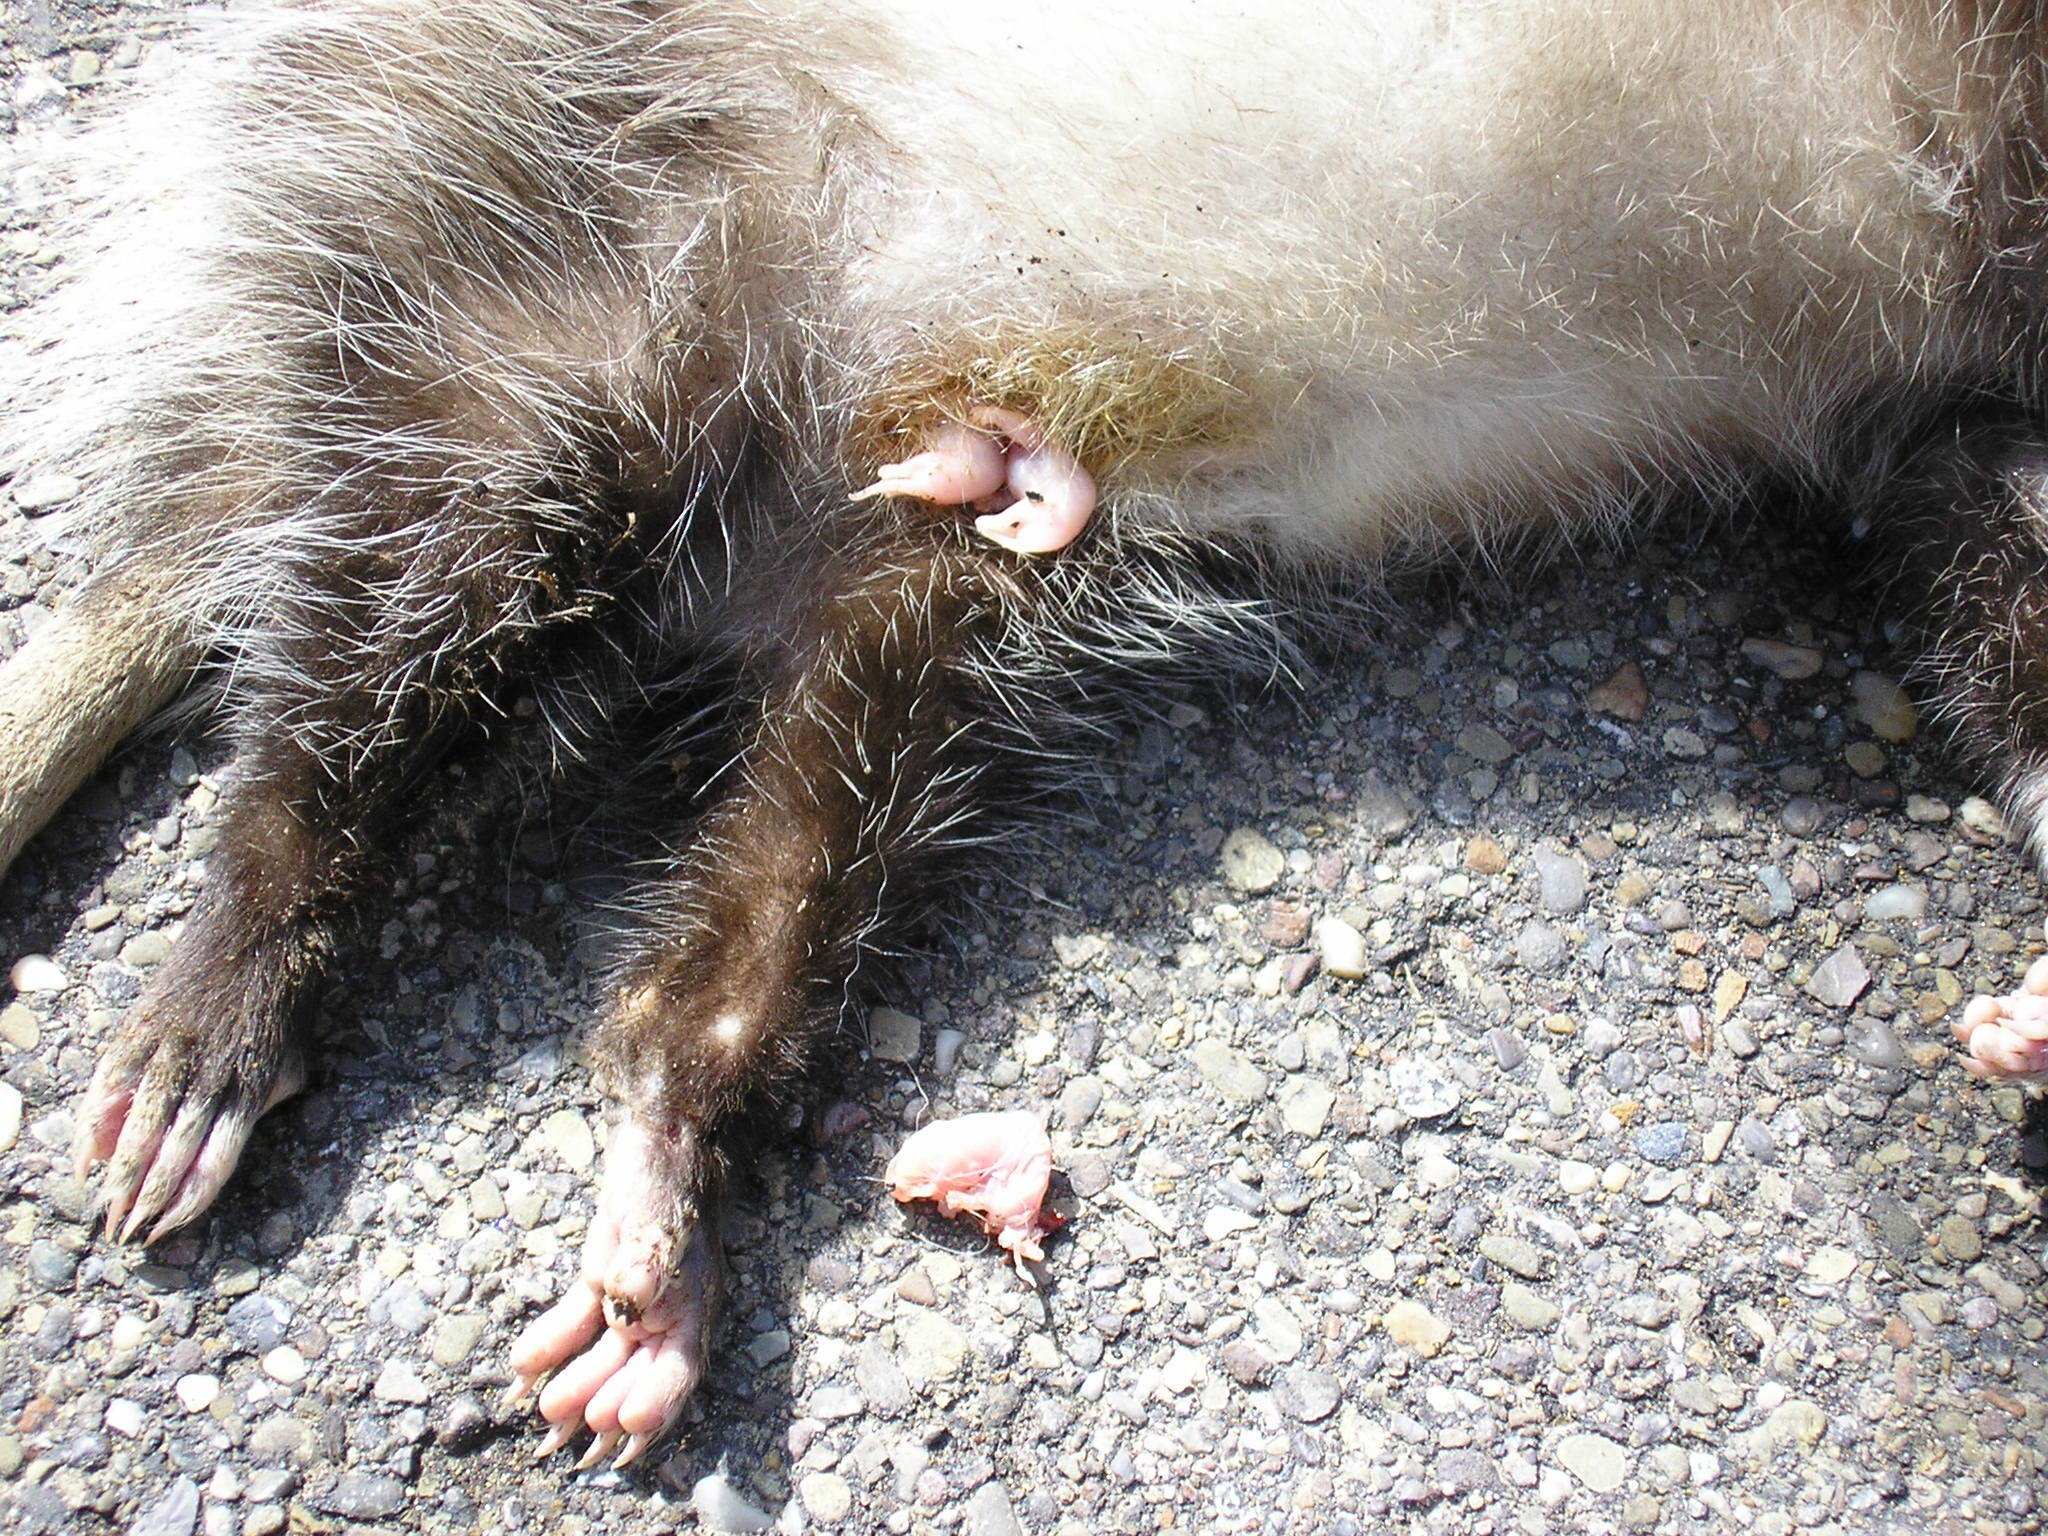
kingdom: Animalia
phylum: Chordata
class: Mammalia
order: Didelphimorphia
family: Didelphidae
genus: Didelphis
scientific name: Didelphis virginiana
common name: Virginia opossum
